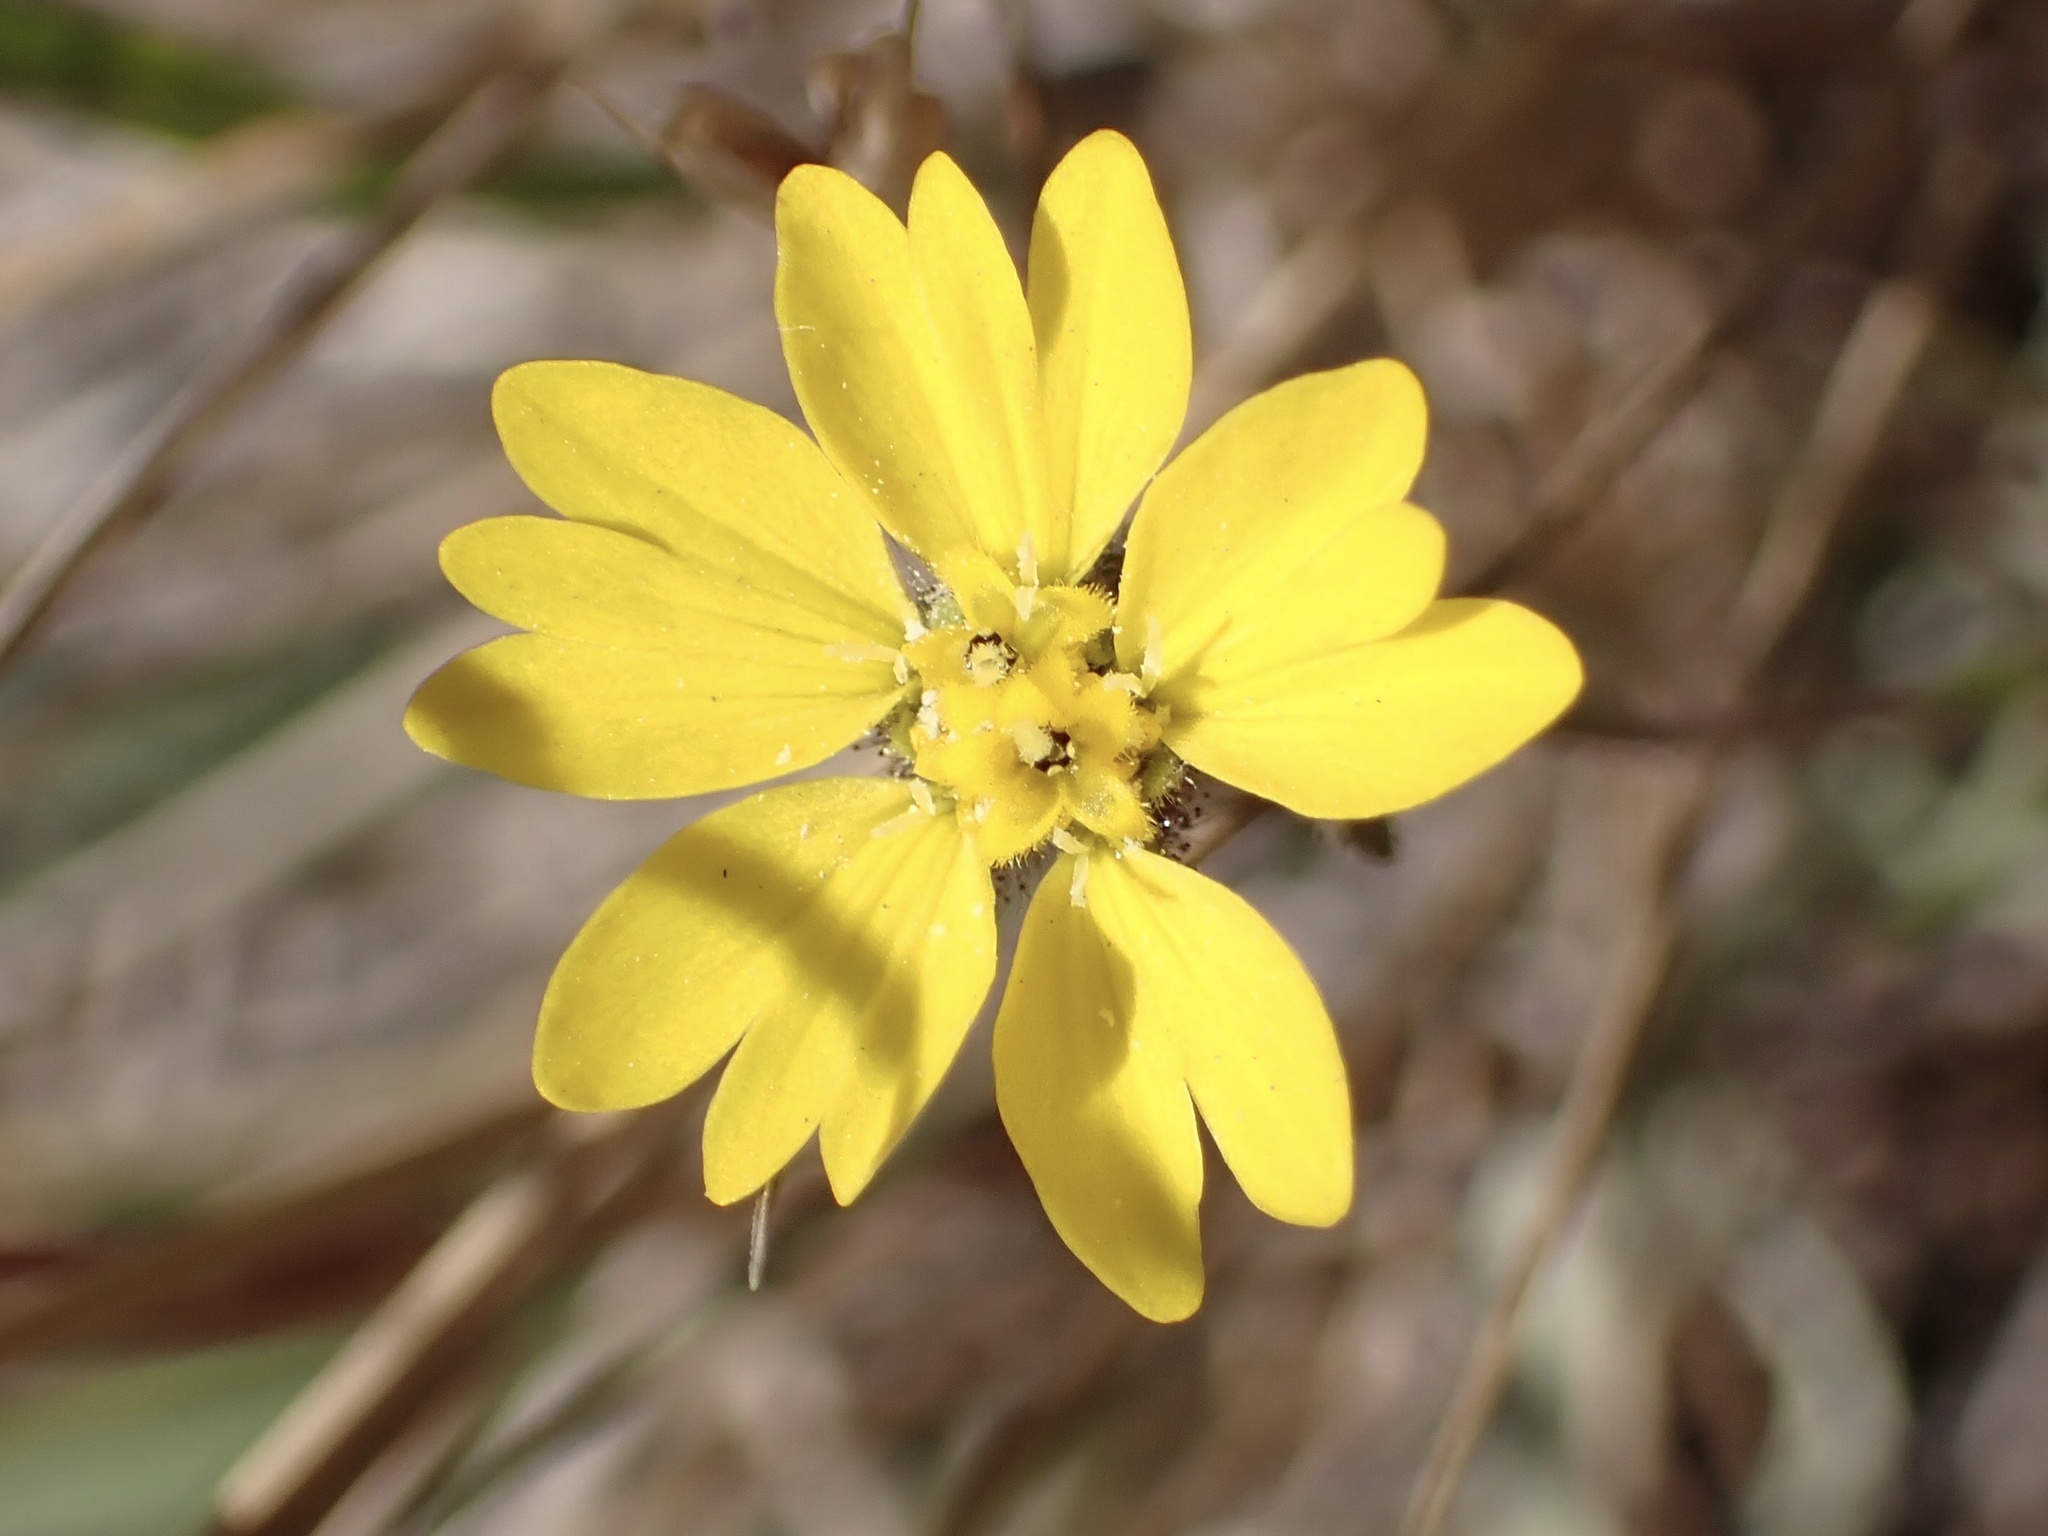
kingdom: Plantae
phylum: Tracheophyta
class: Magnoliopsida
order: Asterales
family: Asteraceae
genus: Hemizonia
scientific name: Hemizonia congesta
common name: Hayfield tarweed
